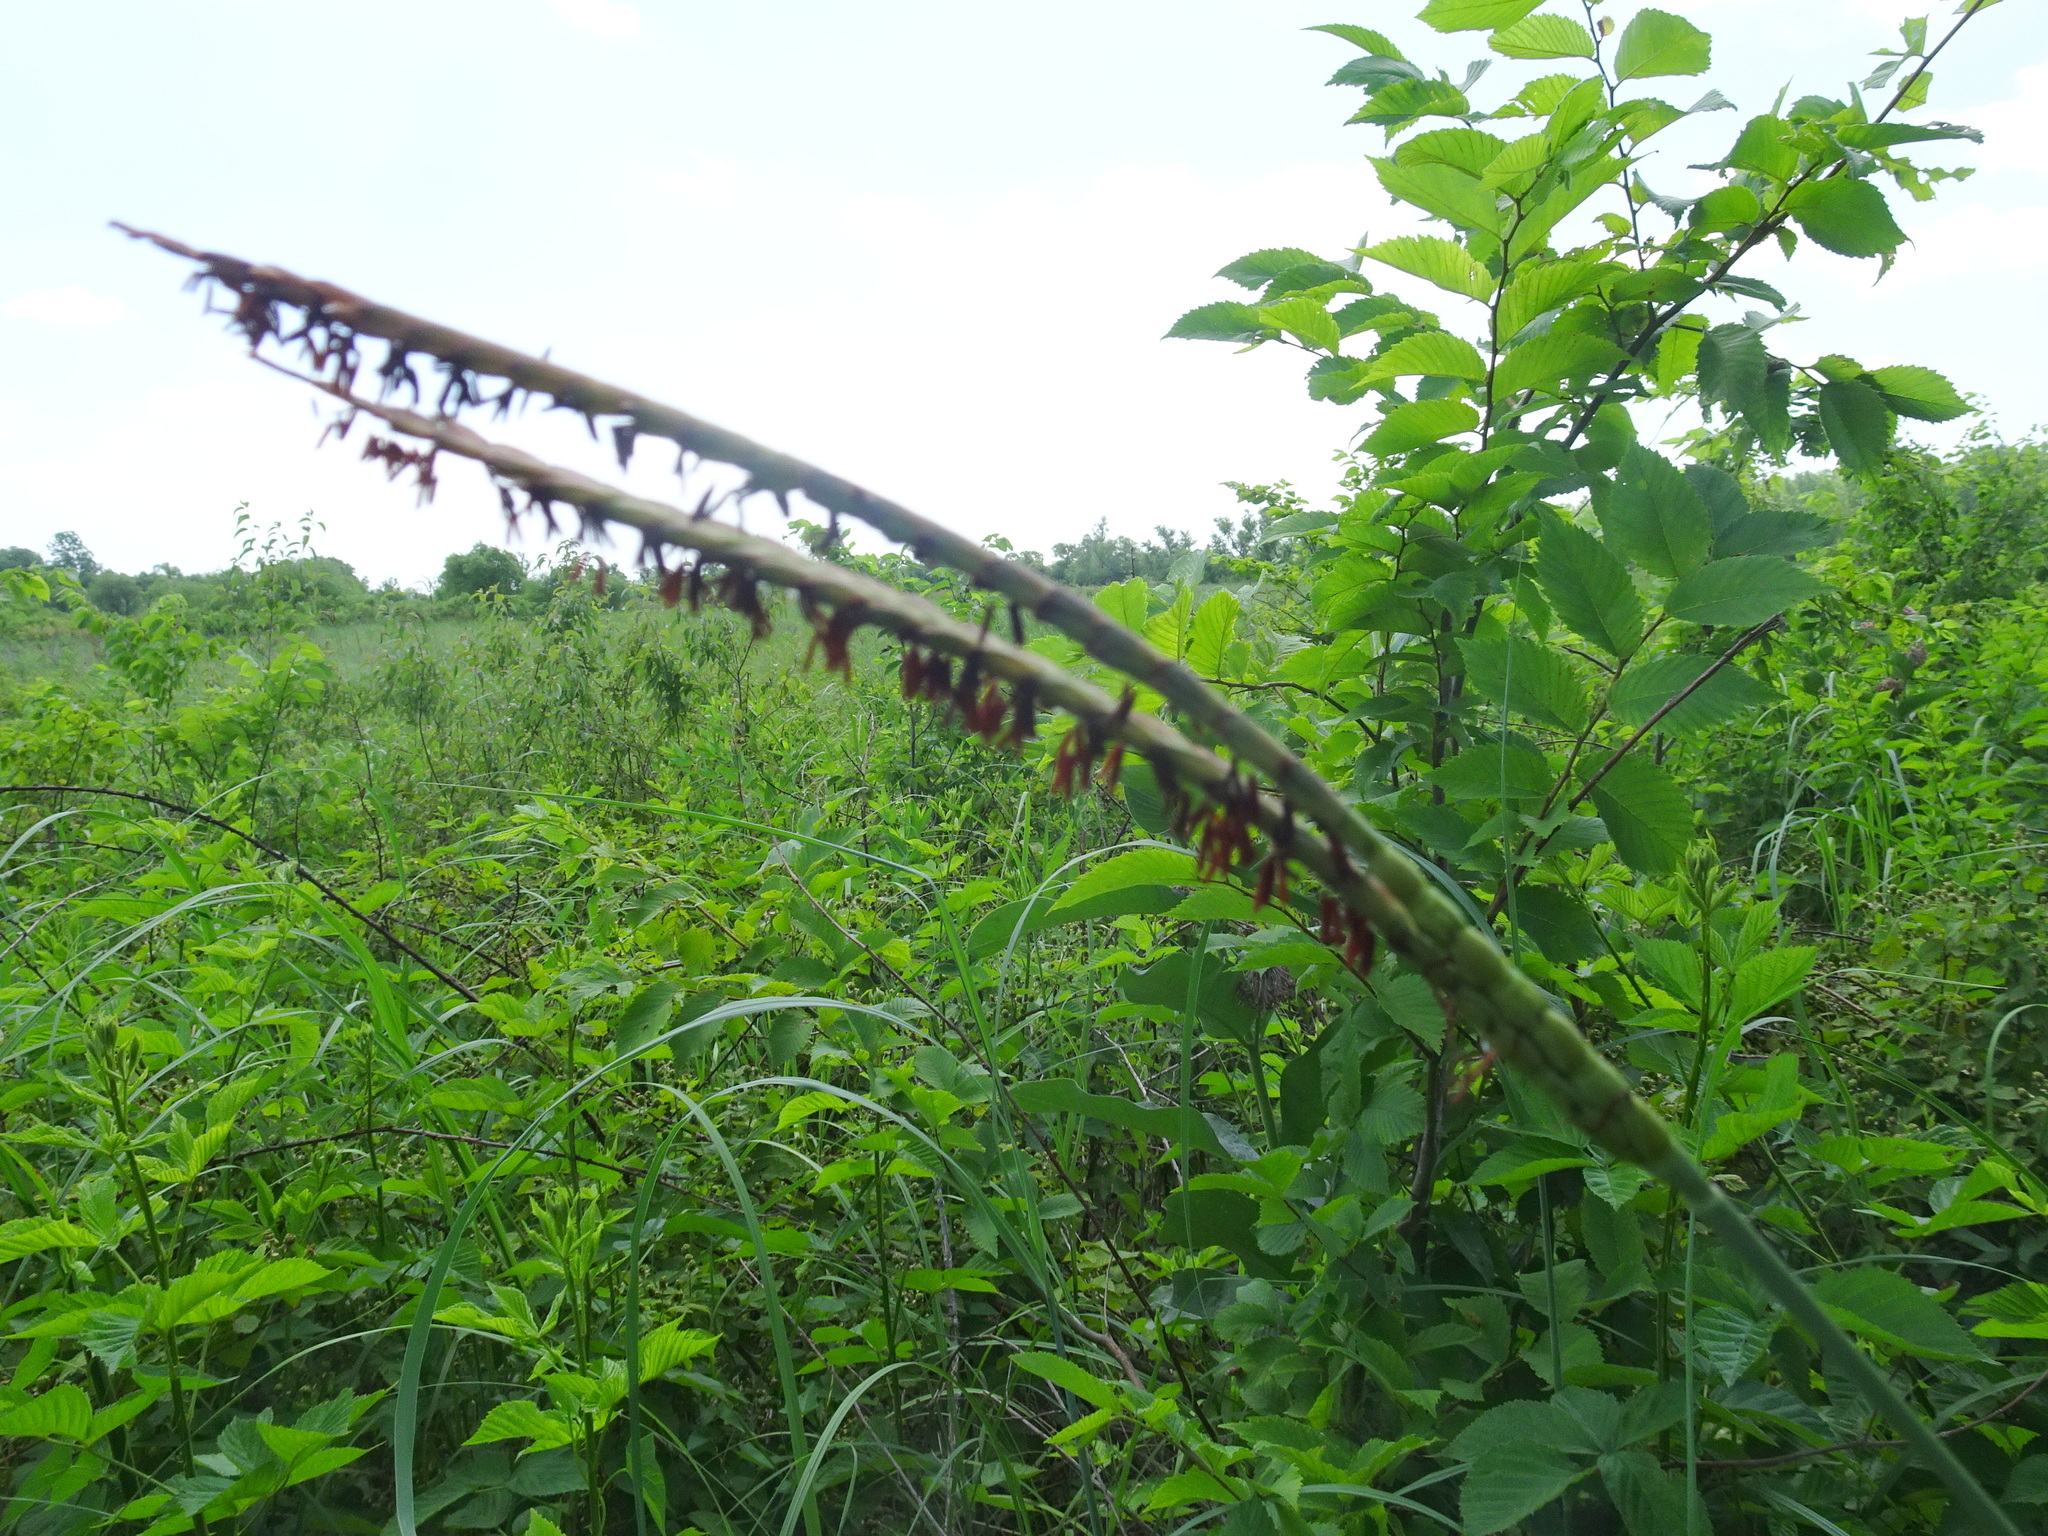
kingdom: Plantae
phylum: Tracheophyta
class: Liliopsida
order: Poales
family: Poaceae
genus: Tripsacum
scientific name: Tripsacum dactyloides
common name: Buffalo-grass
